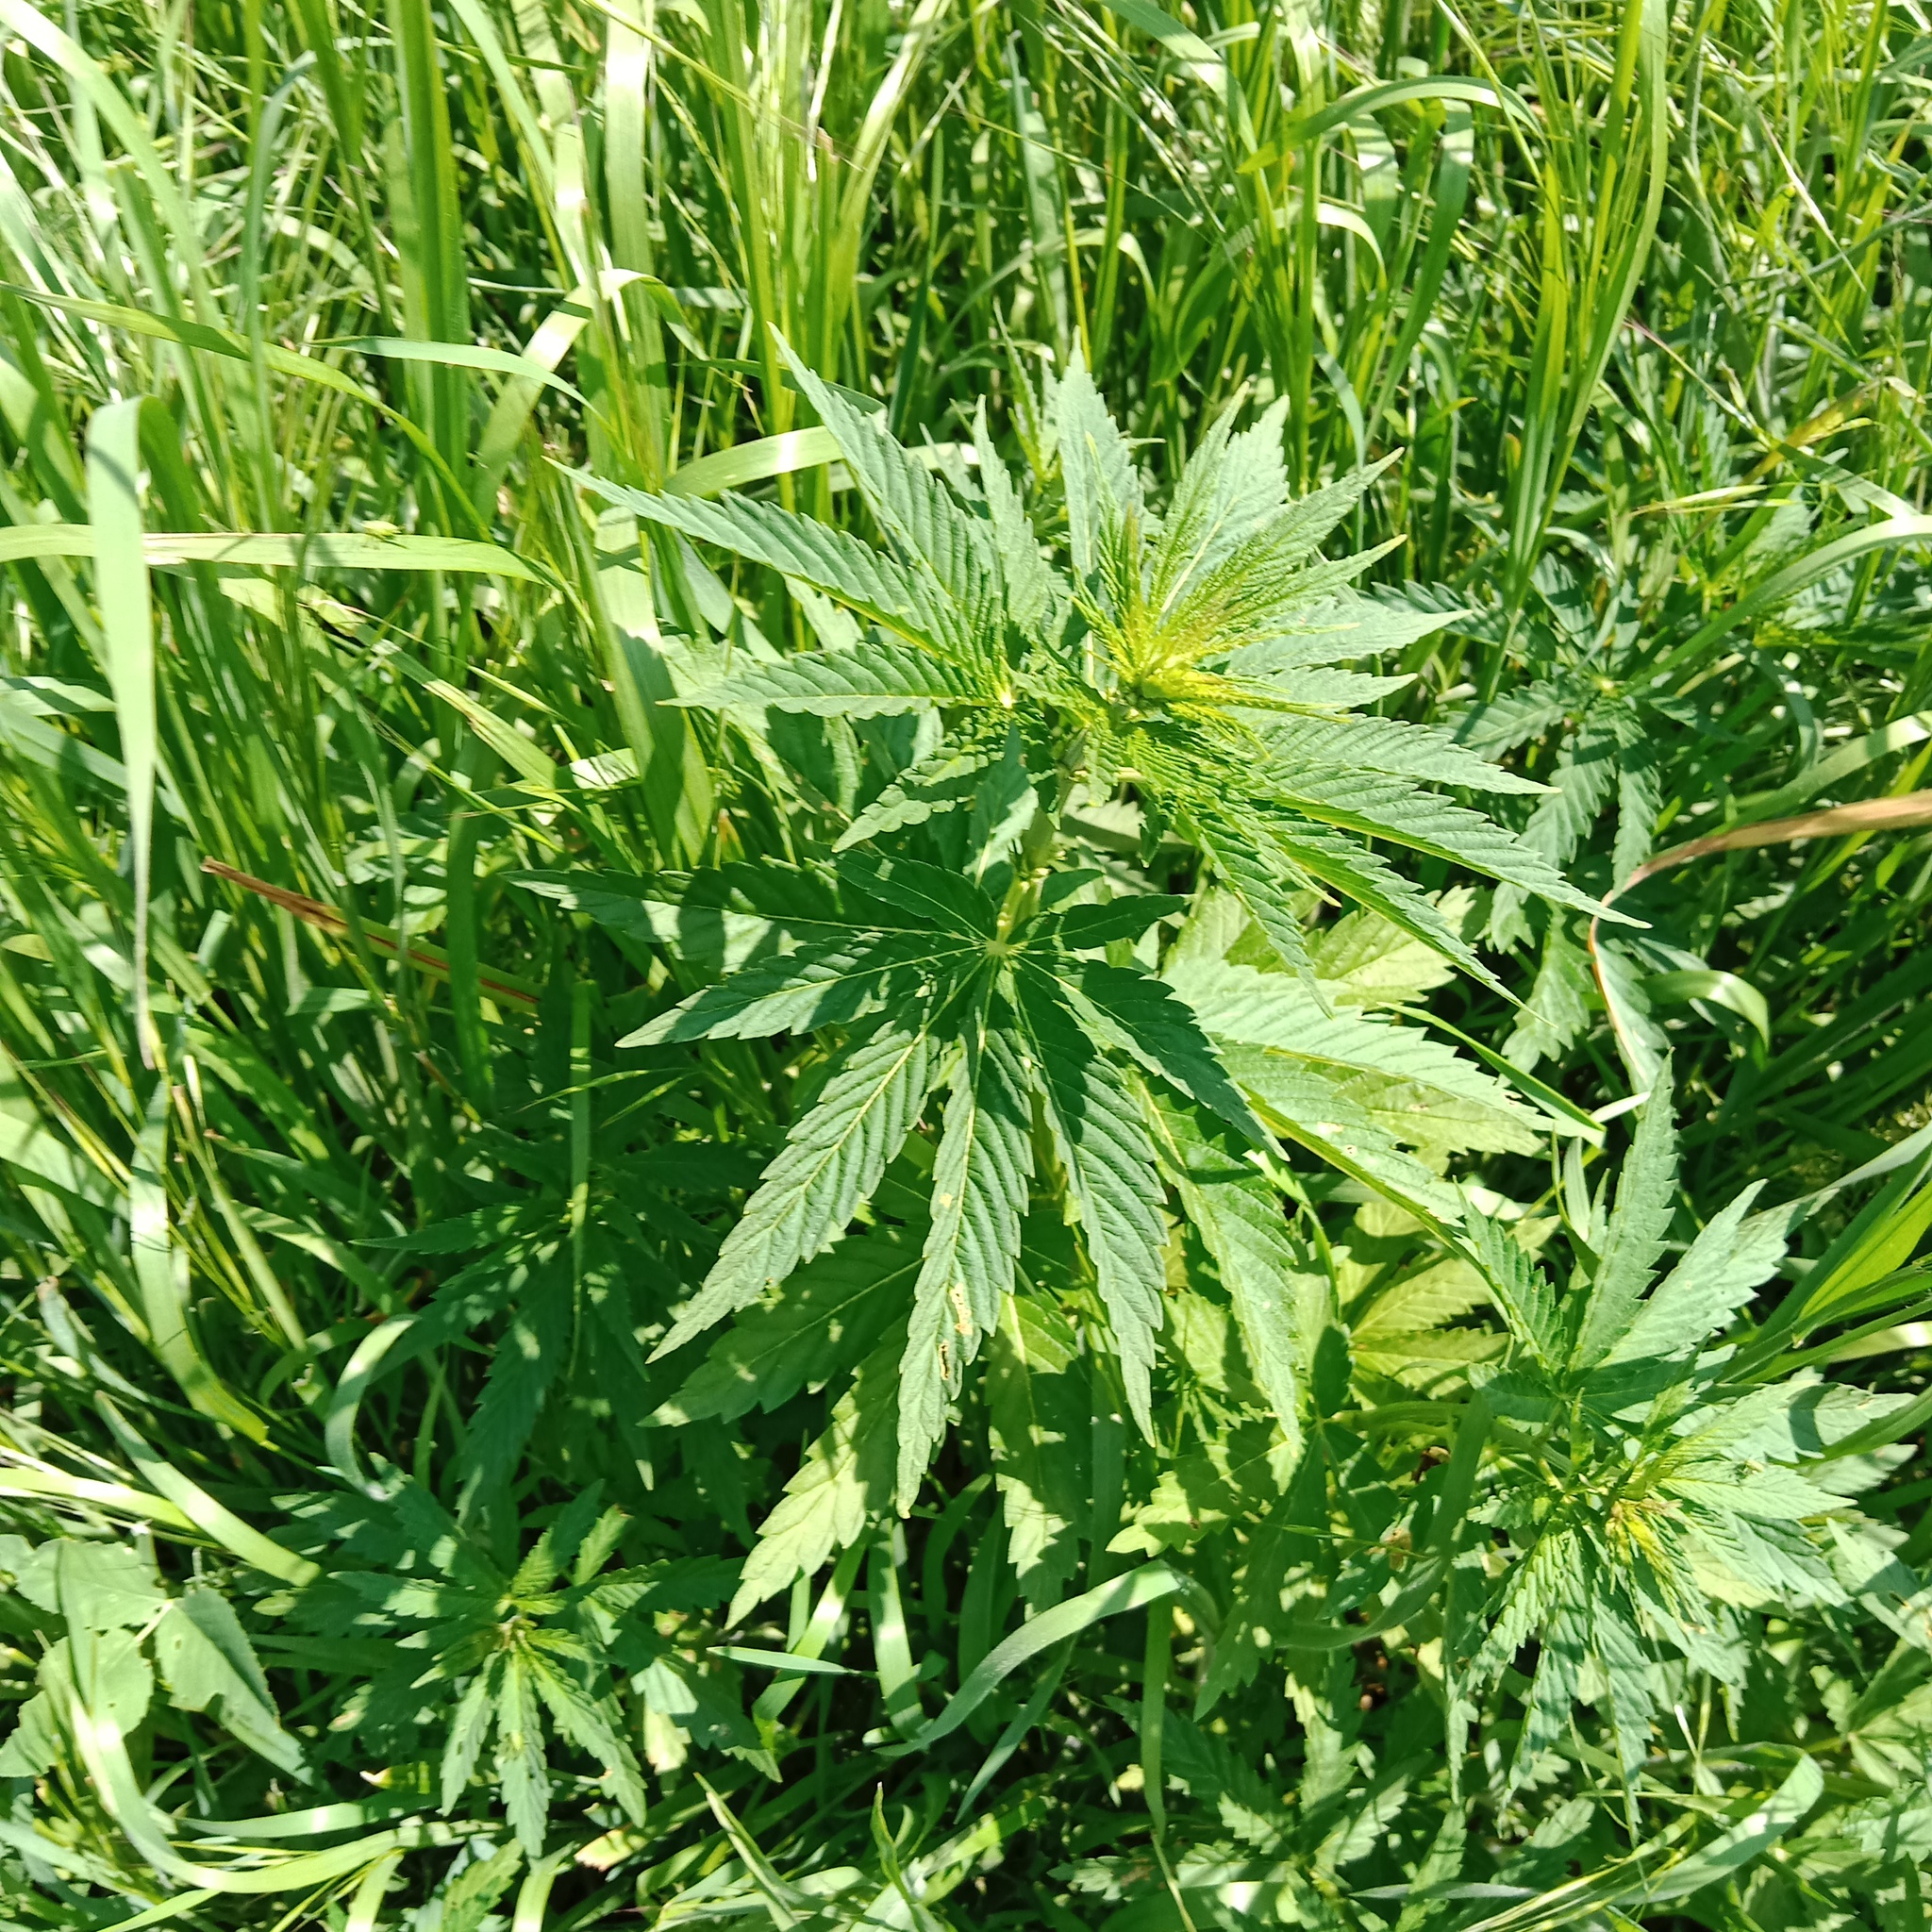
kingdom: Plantae
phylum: Tracheophyta
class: Magnoliopsida
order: Rosales
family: Cannabaceae
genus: Cannabis
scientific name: Cannabis sativa
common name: Hemp
